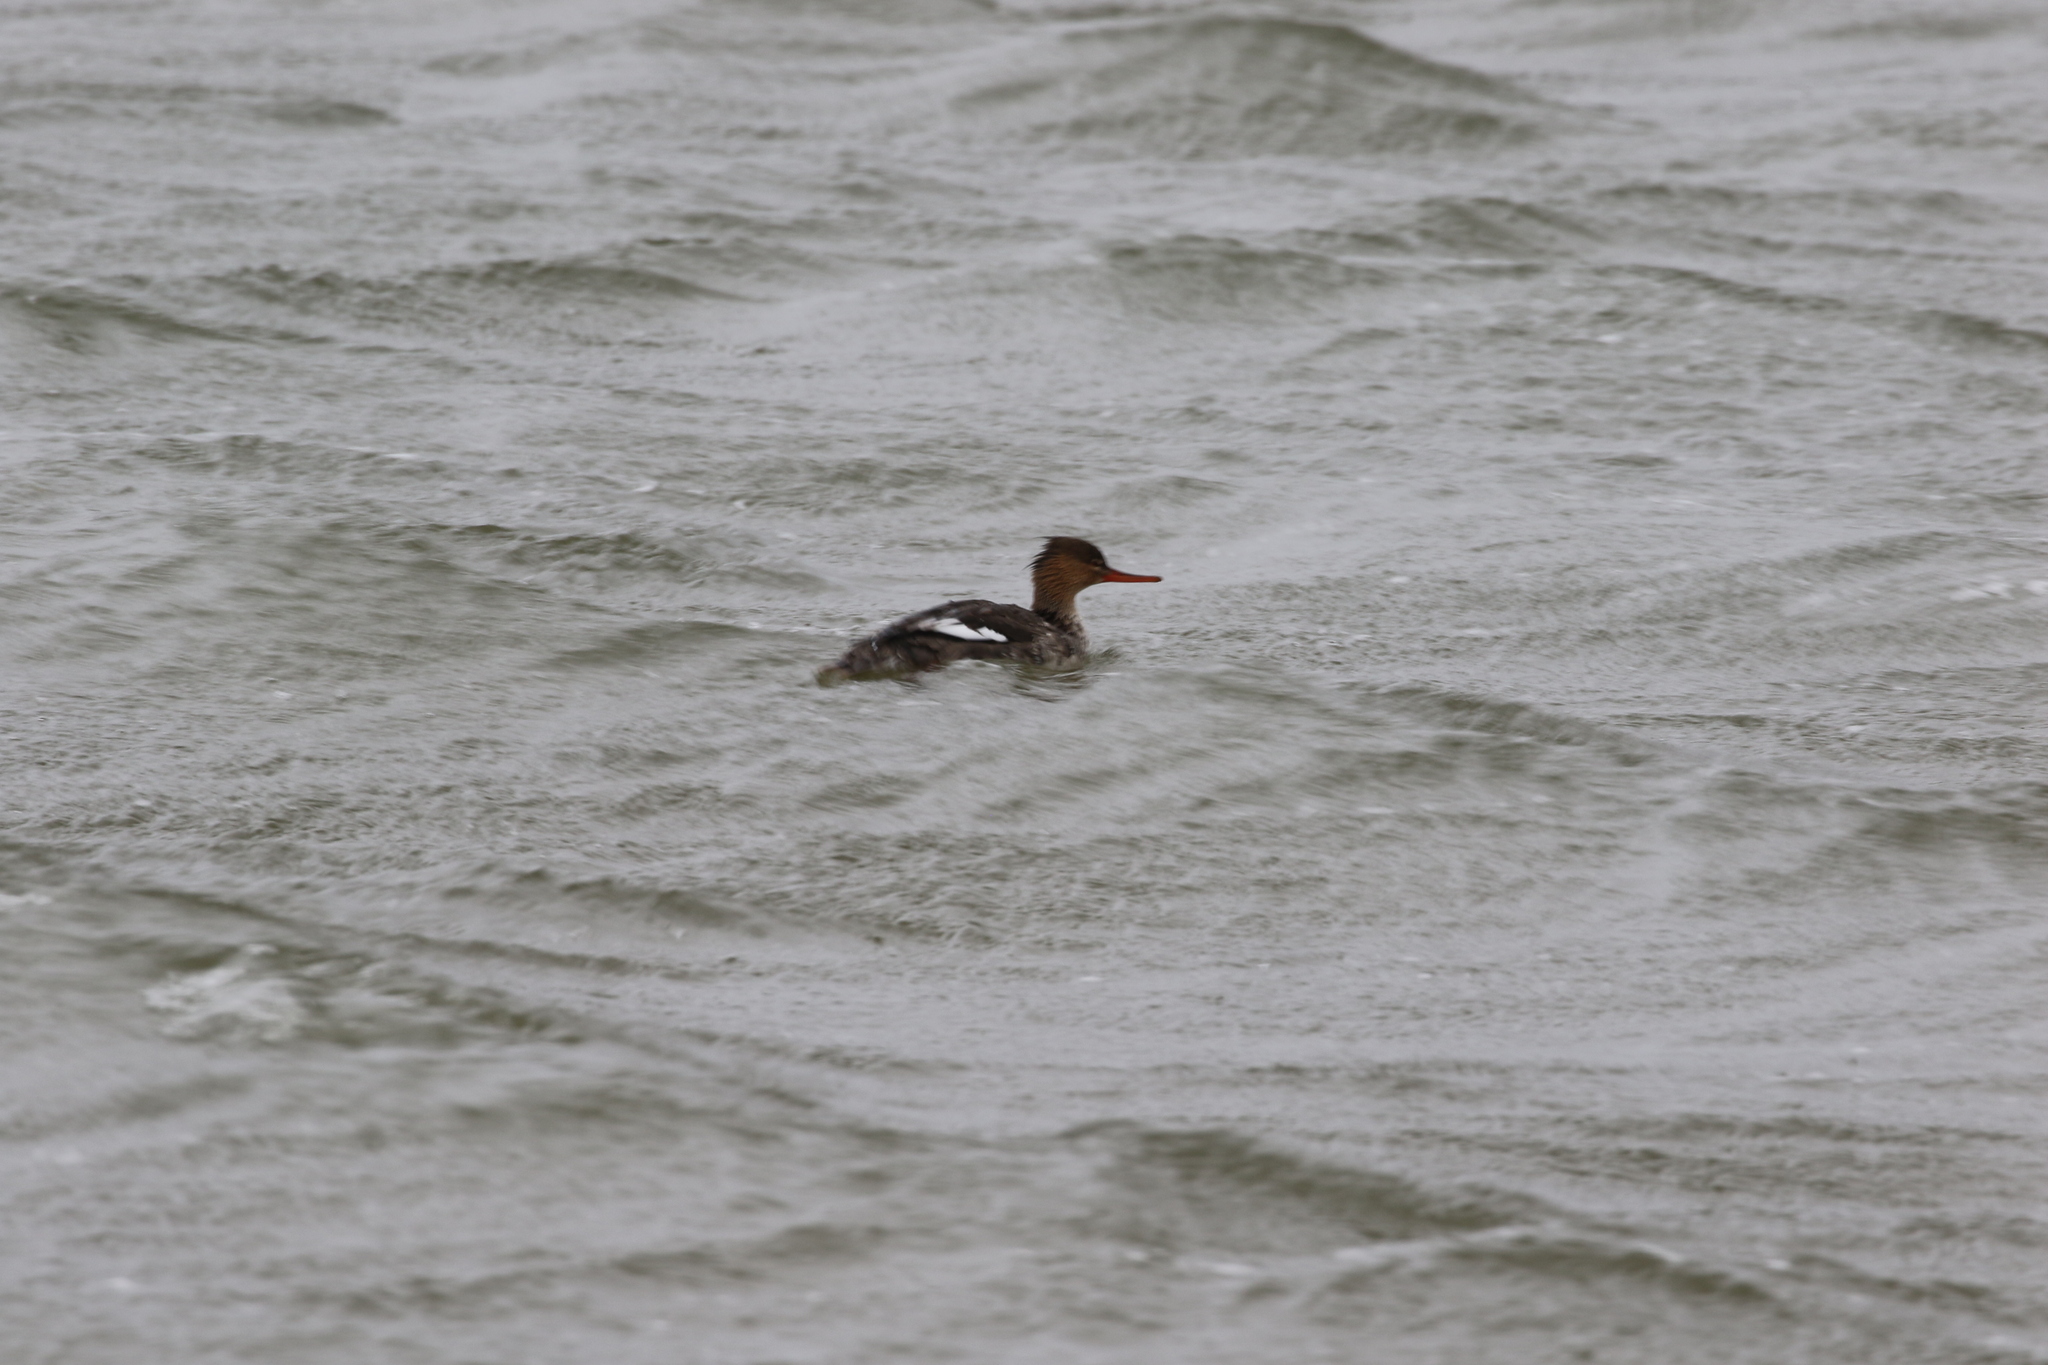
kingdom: Animalia
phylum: Chordata
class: Aves
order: Anseriformes
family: Anatidae
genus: Mergus
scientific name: Mergus serrator
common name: Red-breasted merganser
